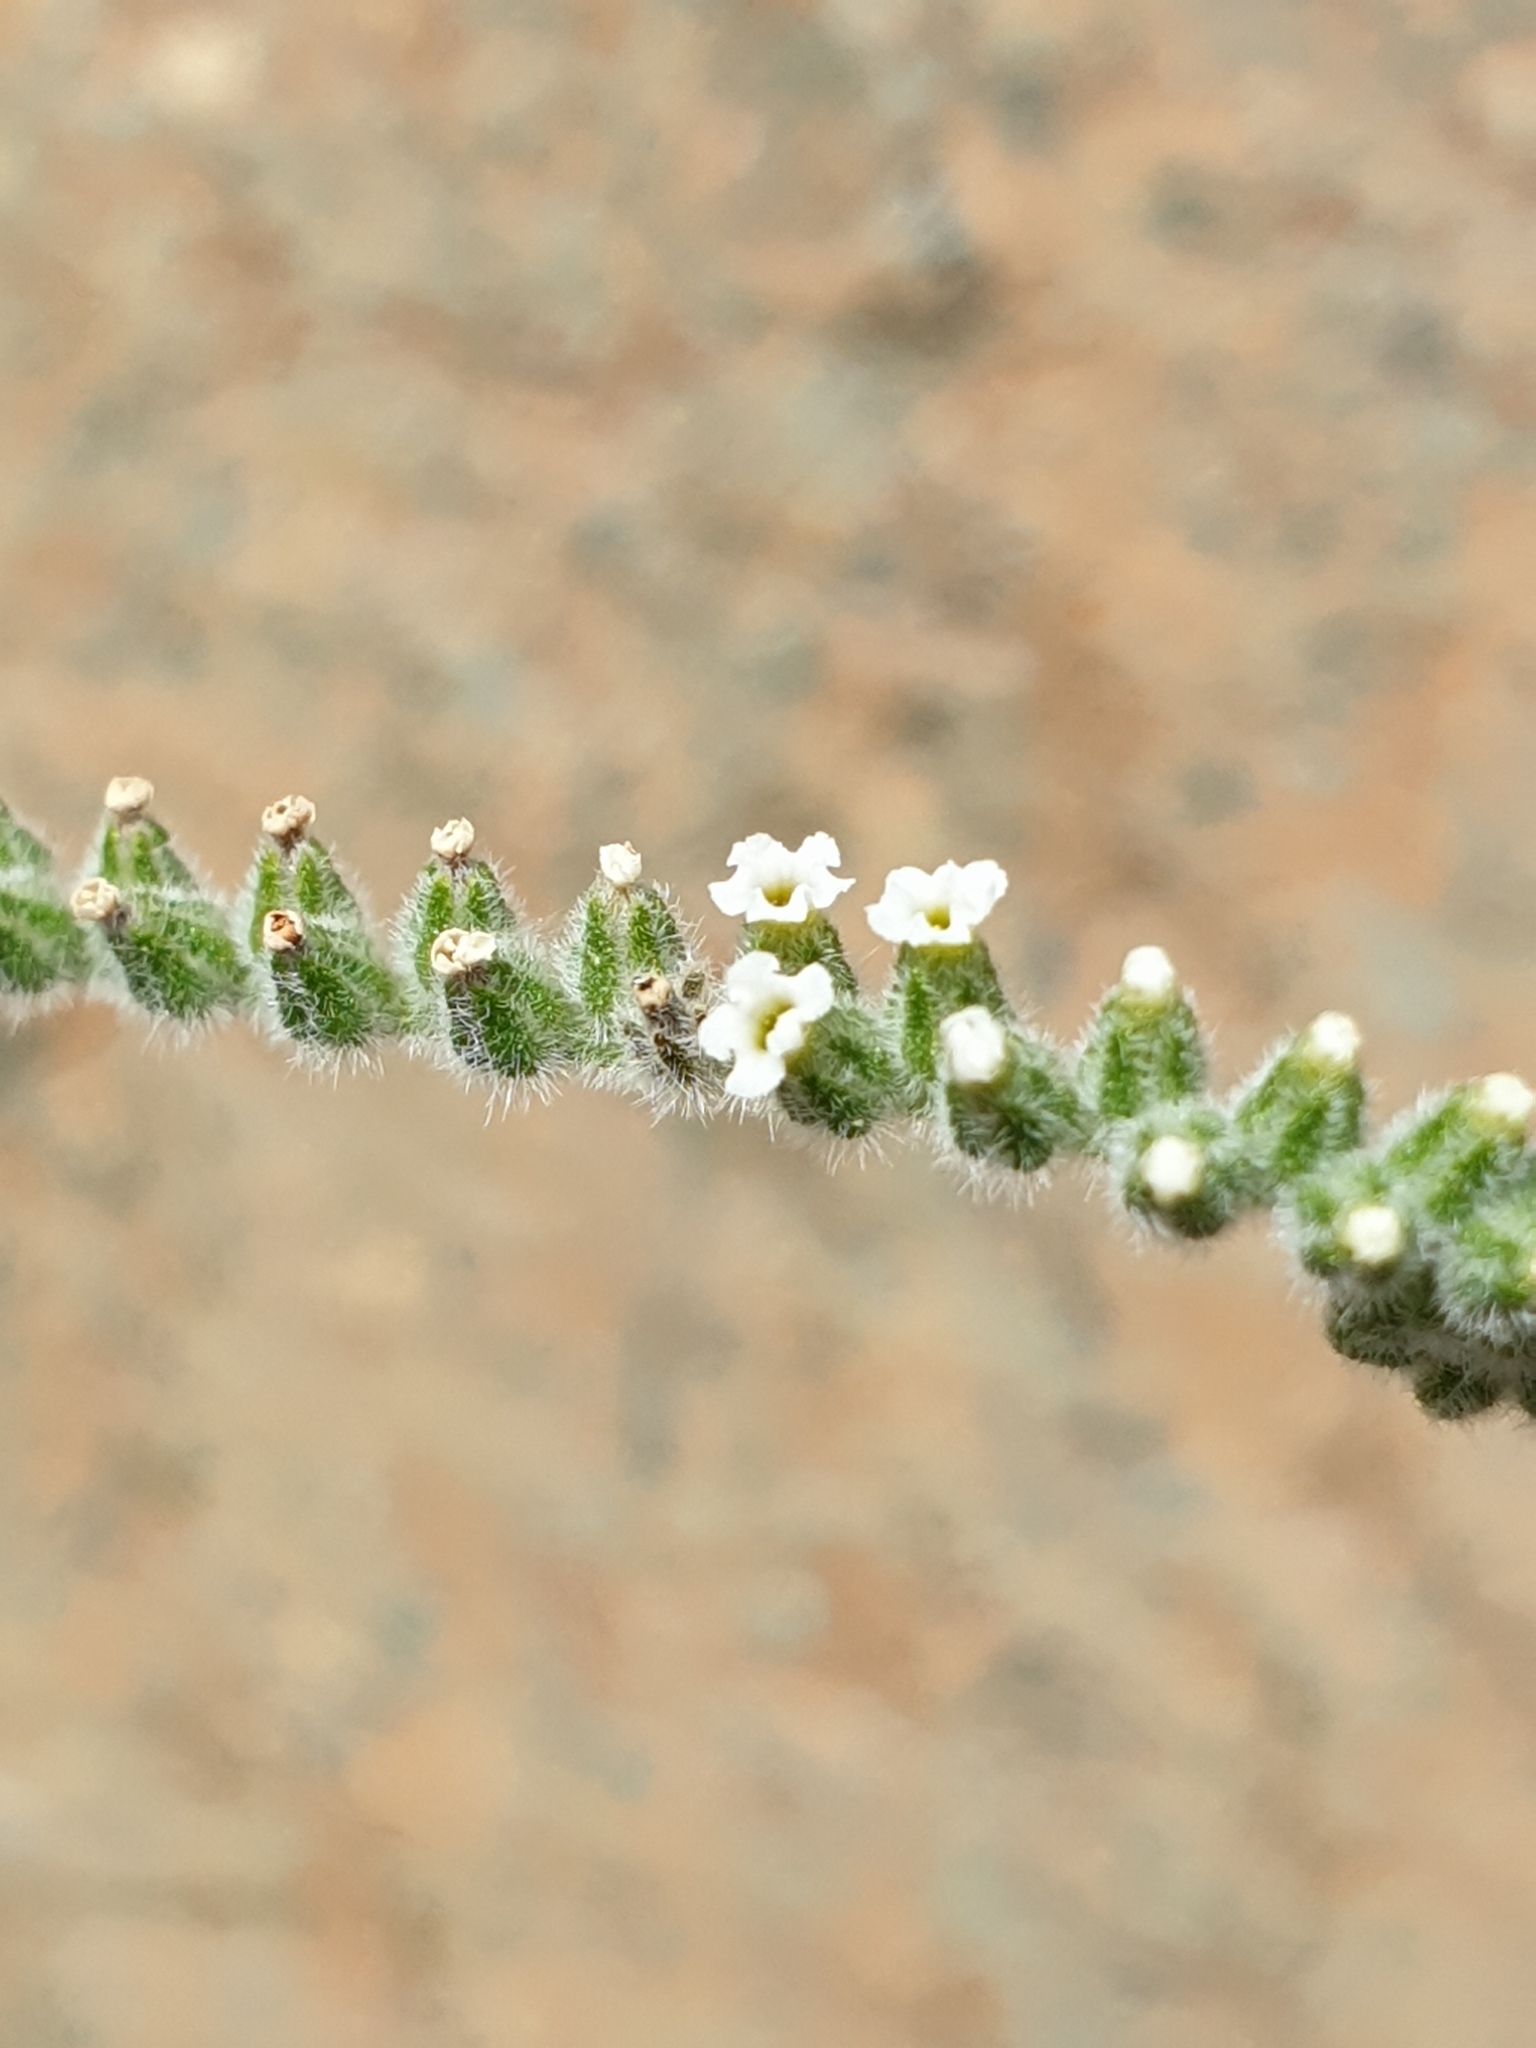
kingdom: Plantae
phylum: Tracheophyta
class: Magnoliopsida
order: Boraginales
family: Boraginaceae
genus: Echiochilon
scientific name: Echiochilon persicum
